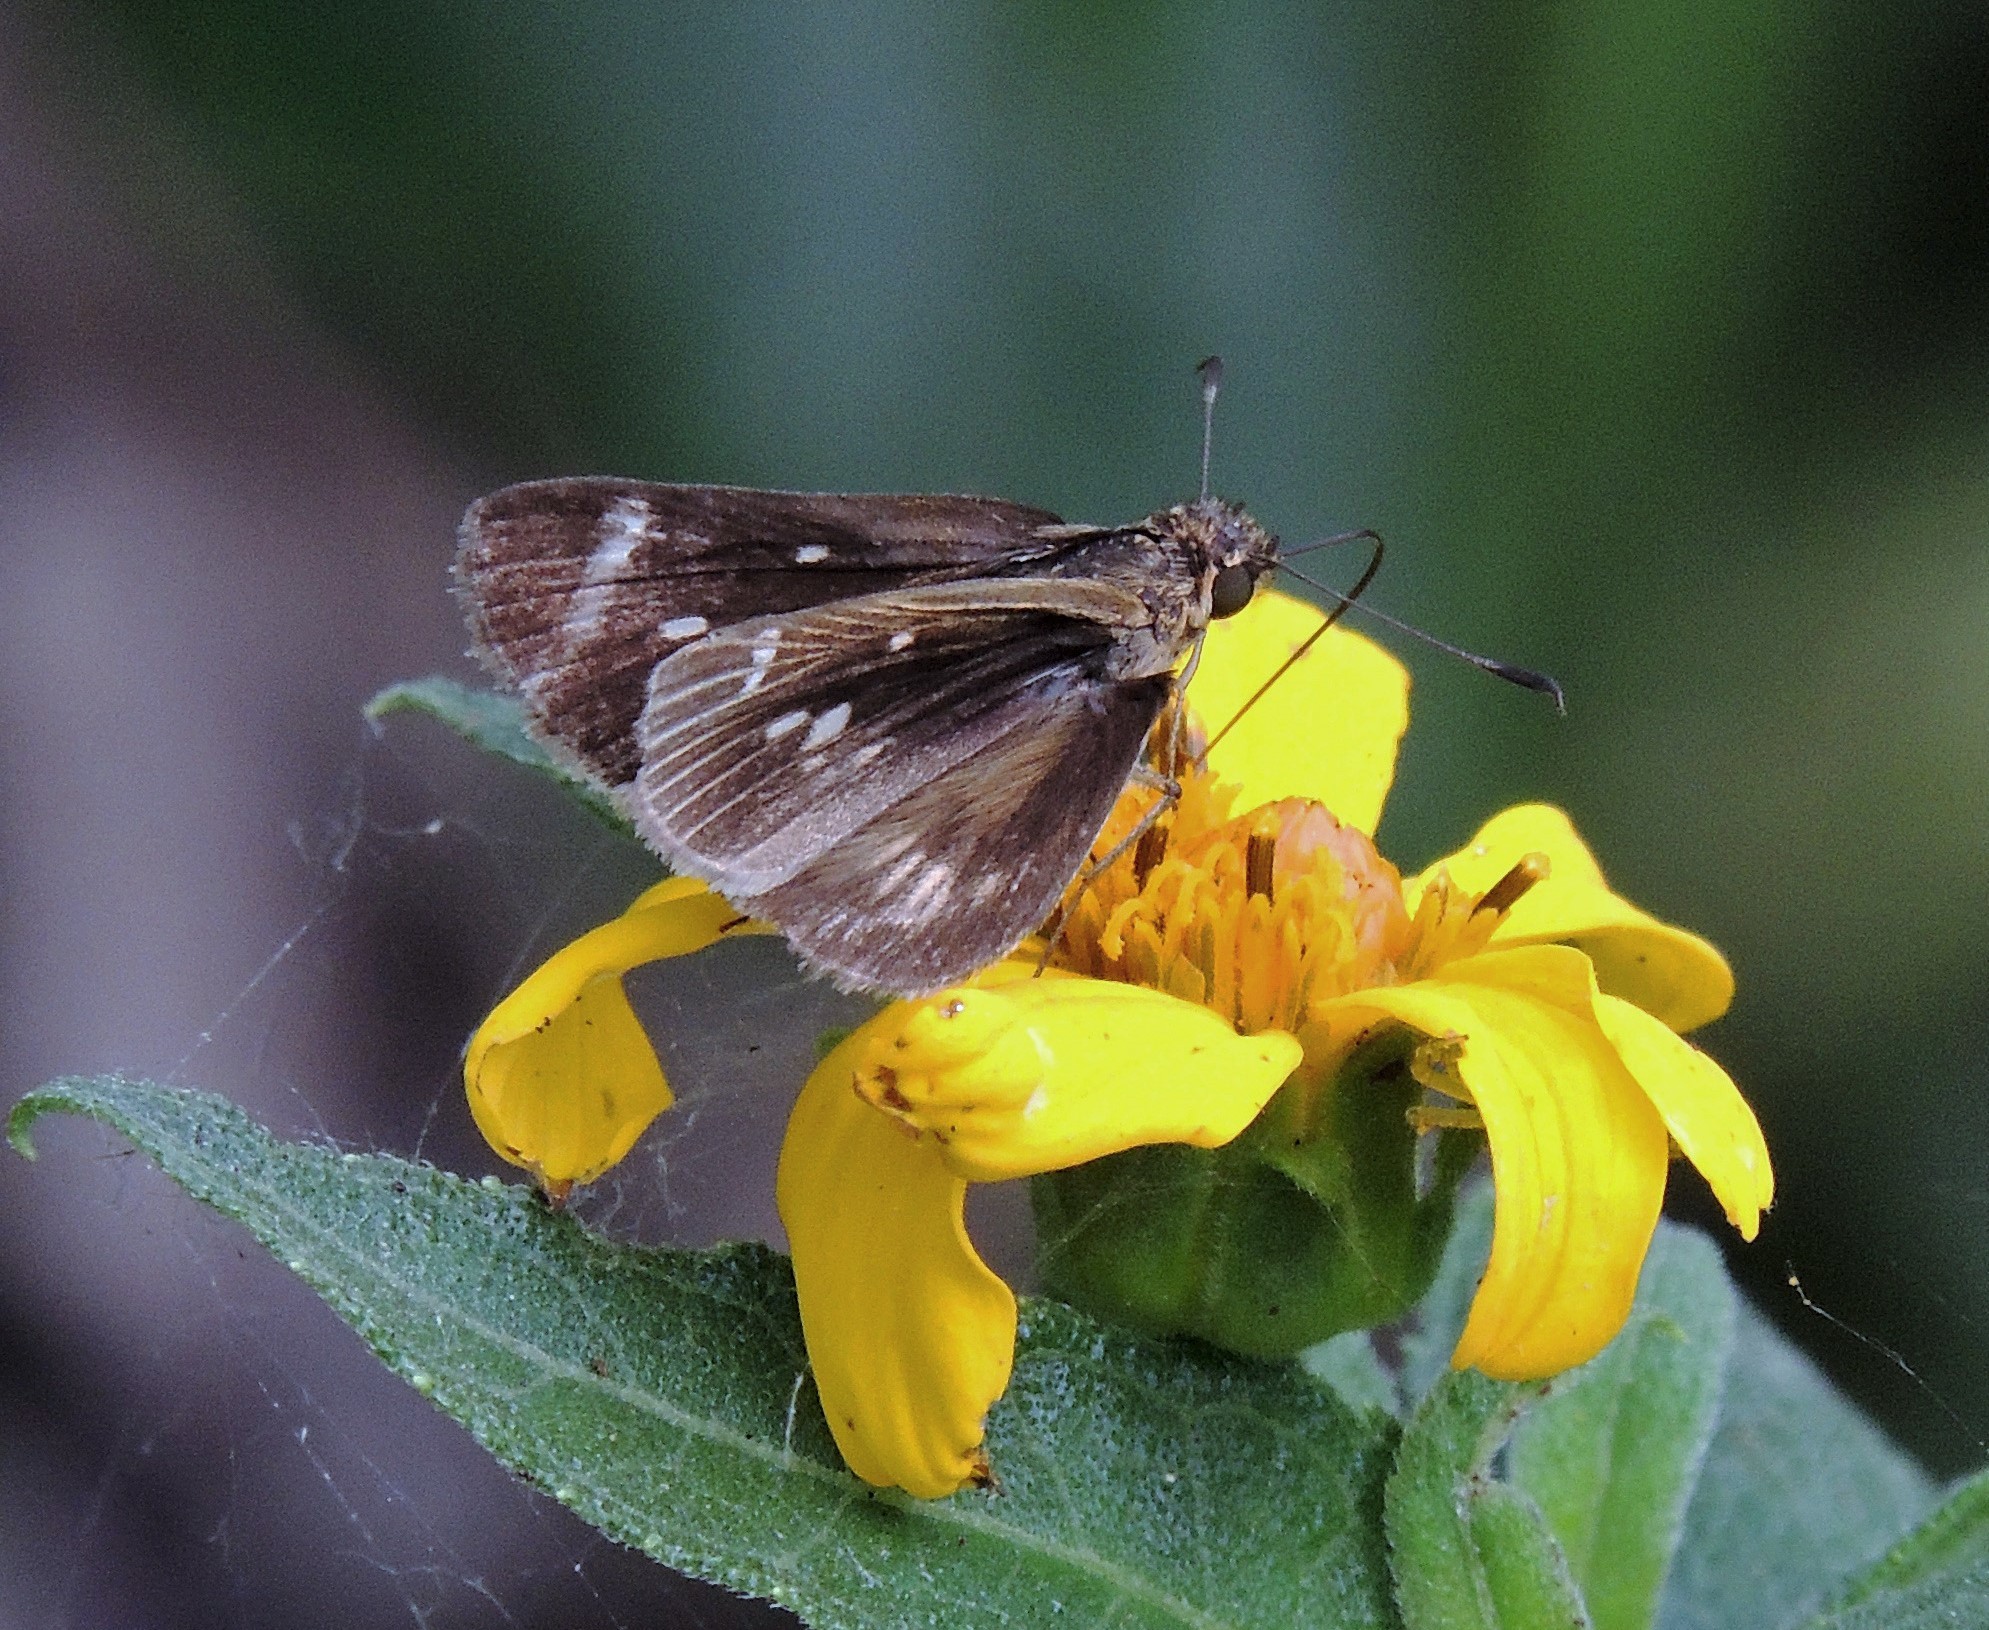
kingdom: Animalia
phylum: Arthropoda
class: Insecta
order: Lepidoptera
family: Hesperiidae
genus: Vehilius
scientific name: Vehilius stictomenes
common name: Pasture skipper
